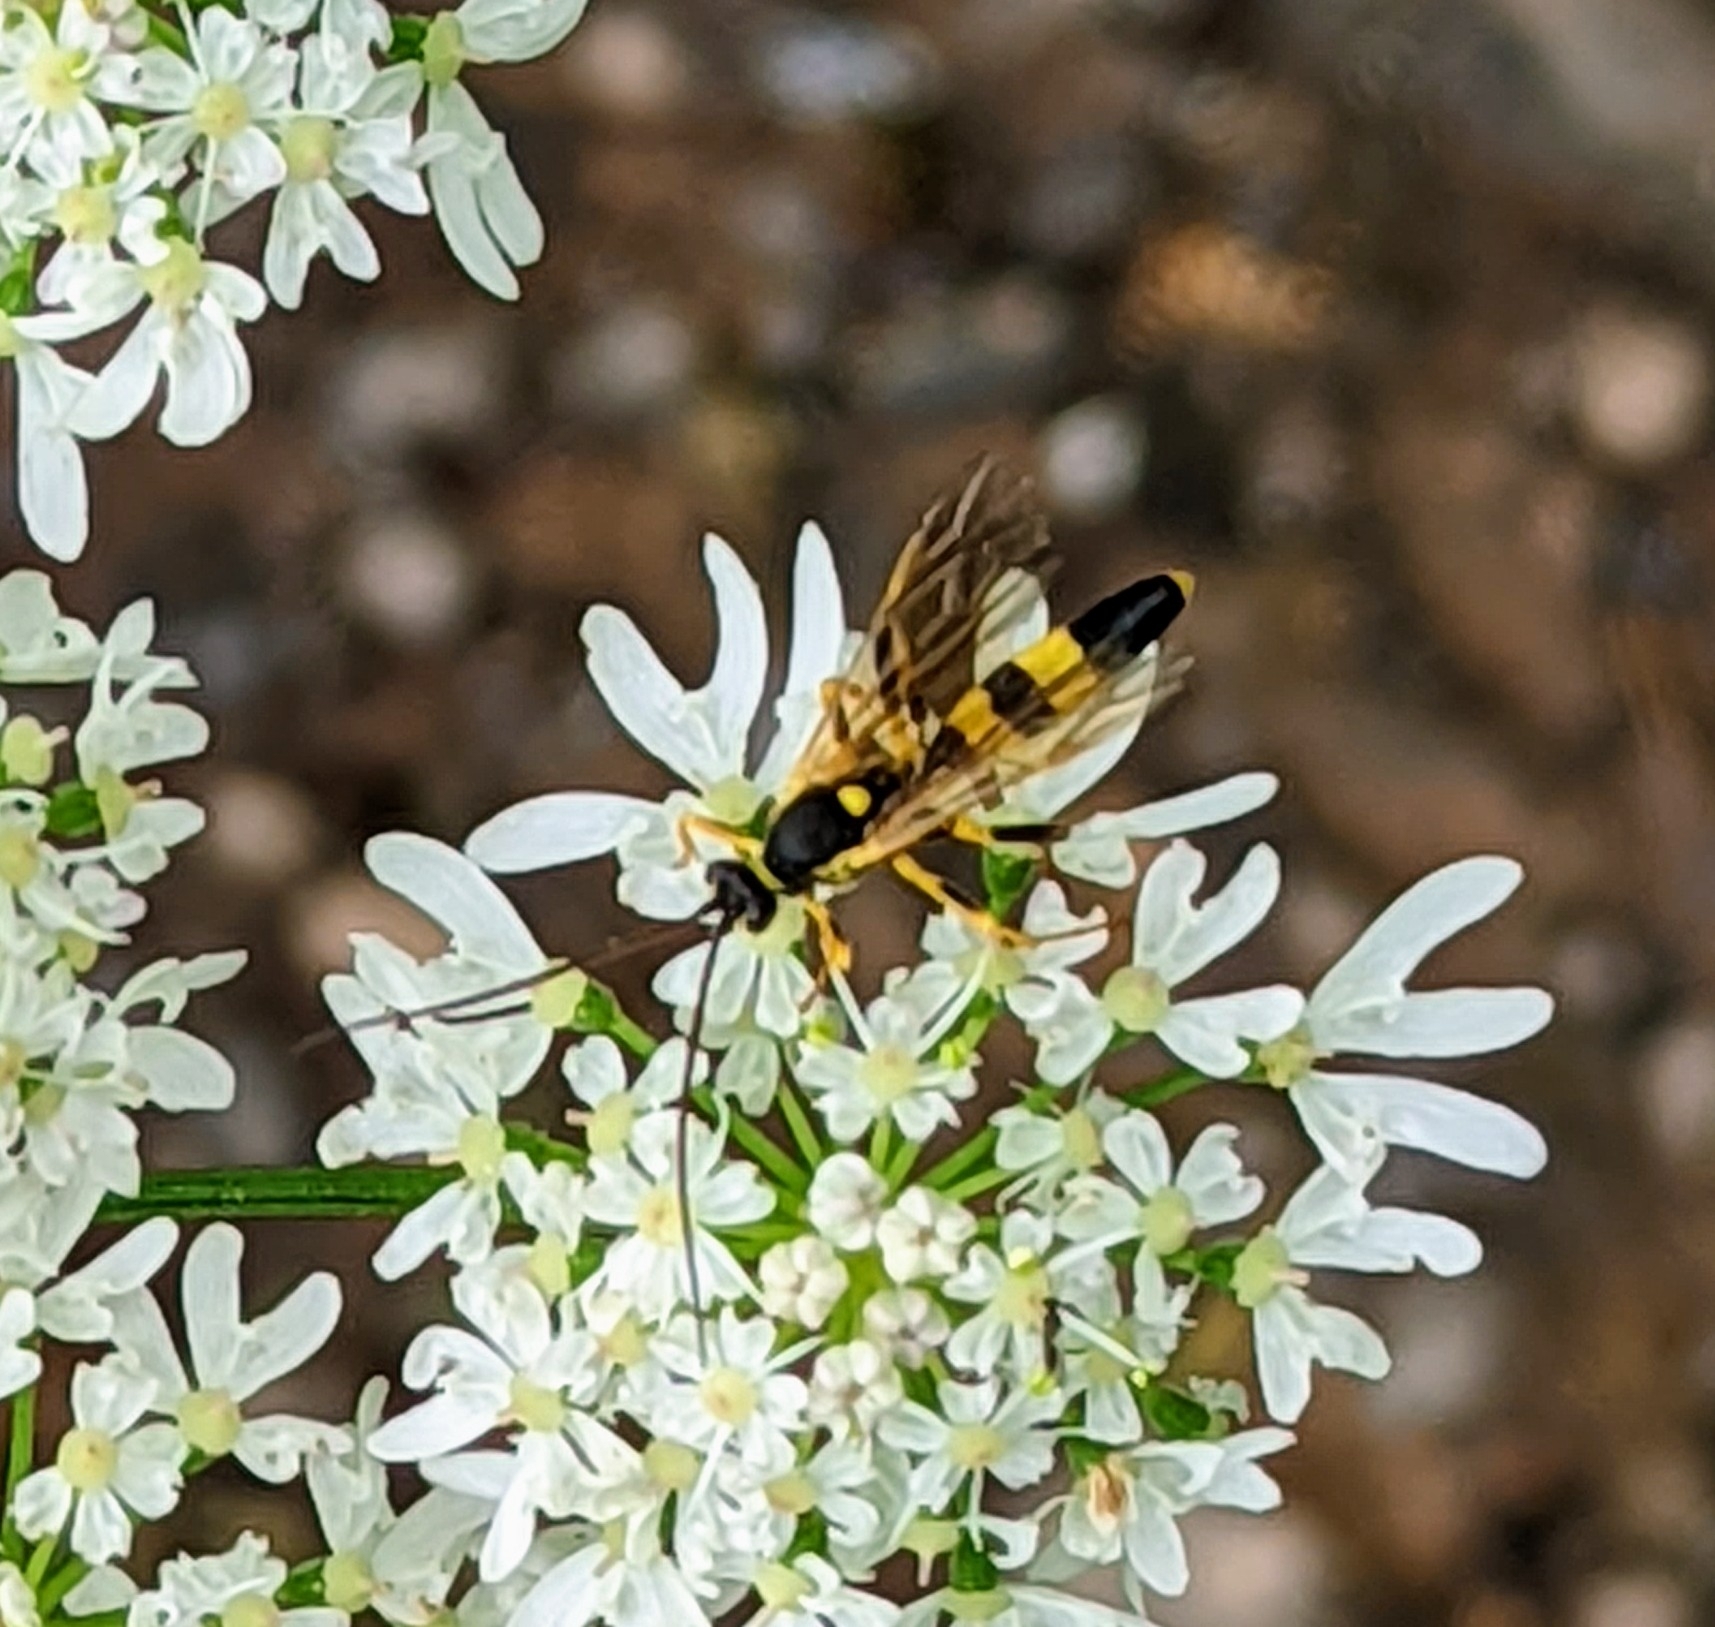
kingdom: Animalia
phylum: Arthropoda
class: Insecta
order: Hymenoptera
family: Ichneumonidae
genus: Amblyteles
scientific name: Amblyteles armatorius
